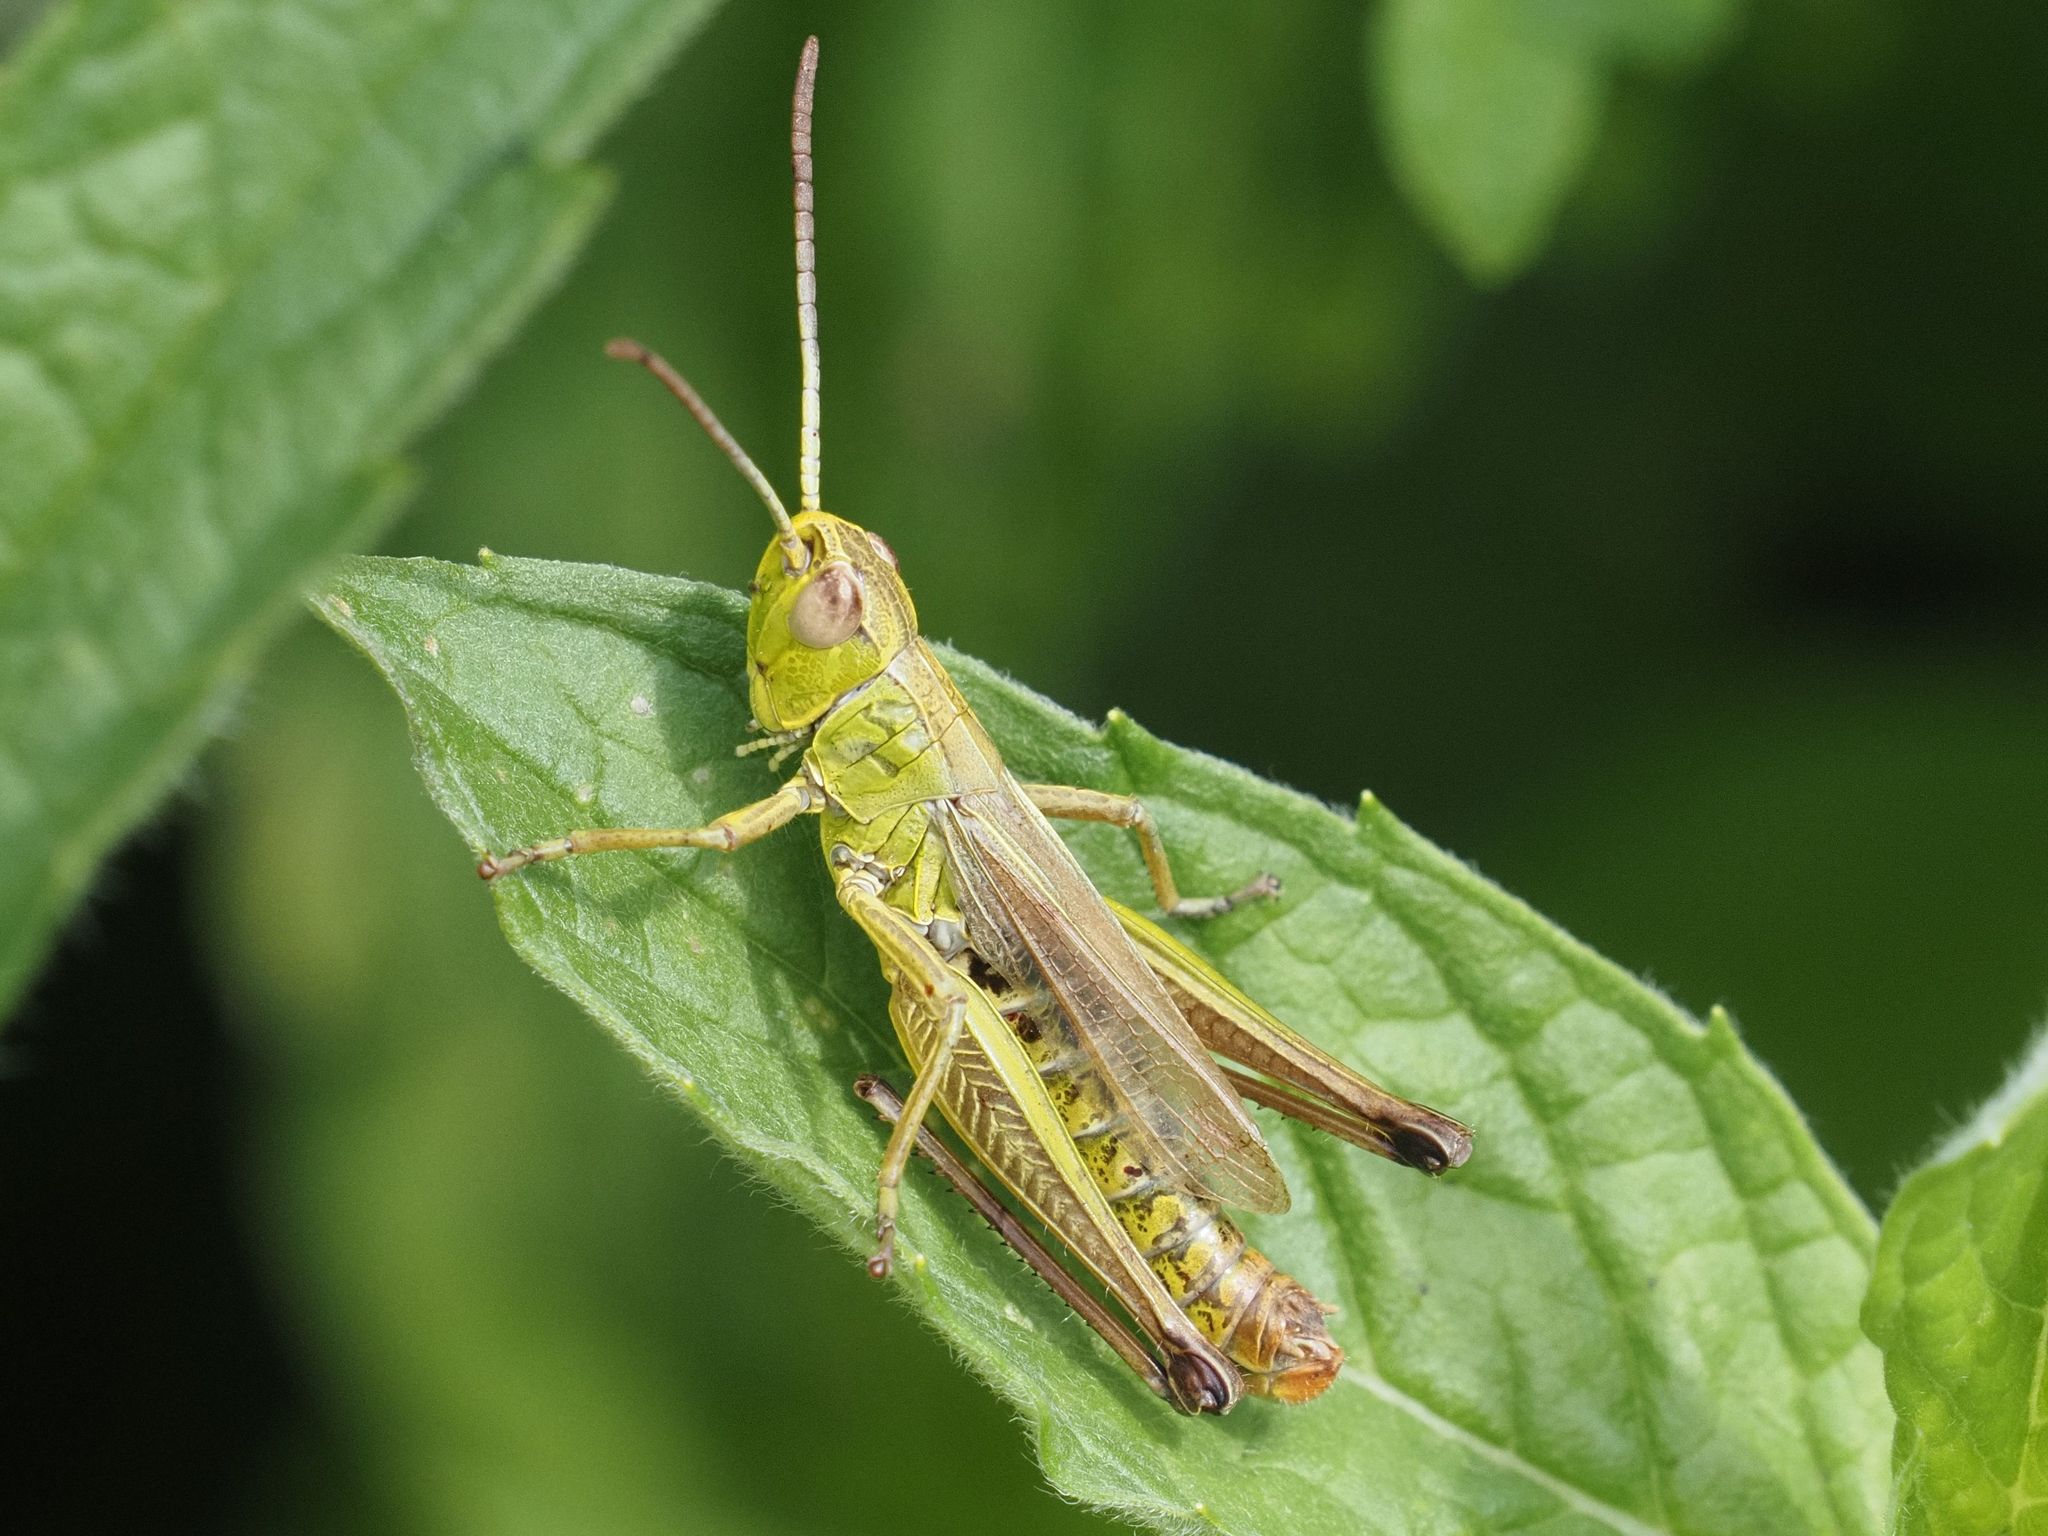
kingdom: Animalia
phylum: Arthropoda
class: Insecta
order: Orthoptera
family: Acrididae
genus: Pseudochorthippus
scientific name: Pseudochorthippus parallelus
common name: Meadow grasshopper
